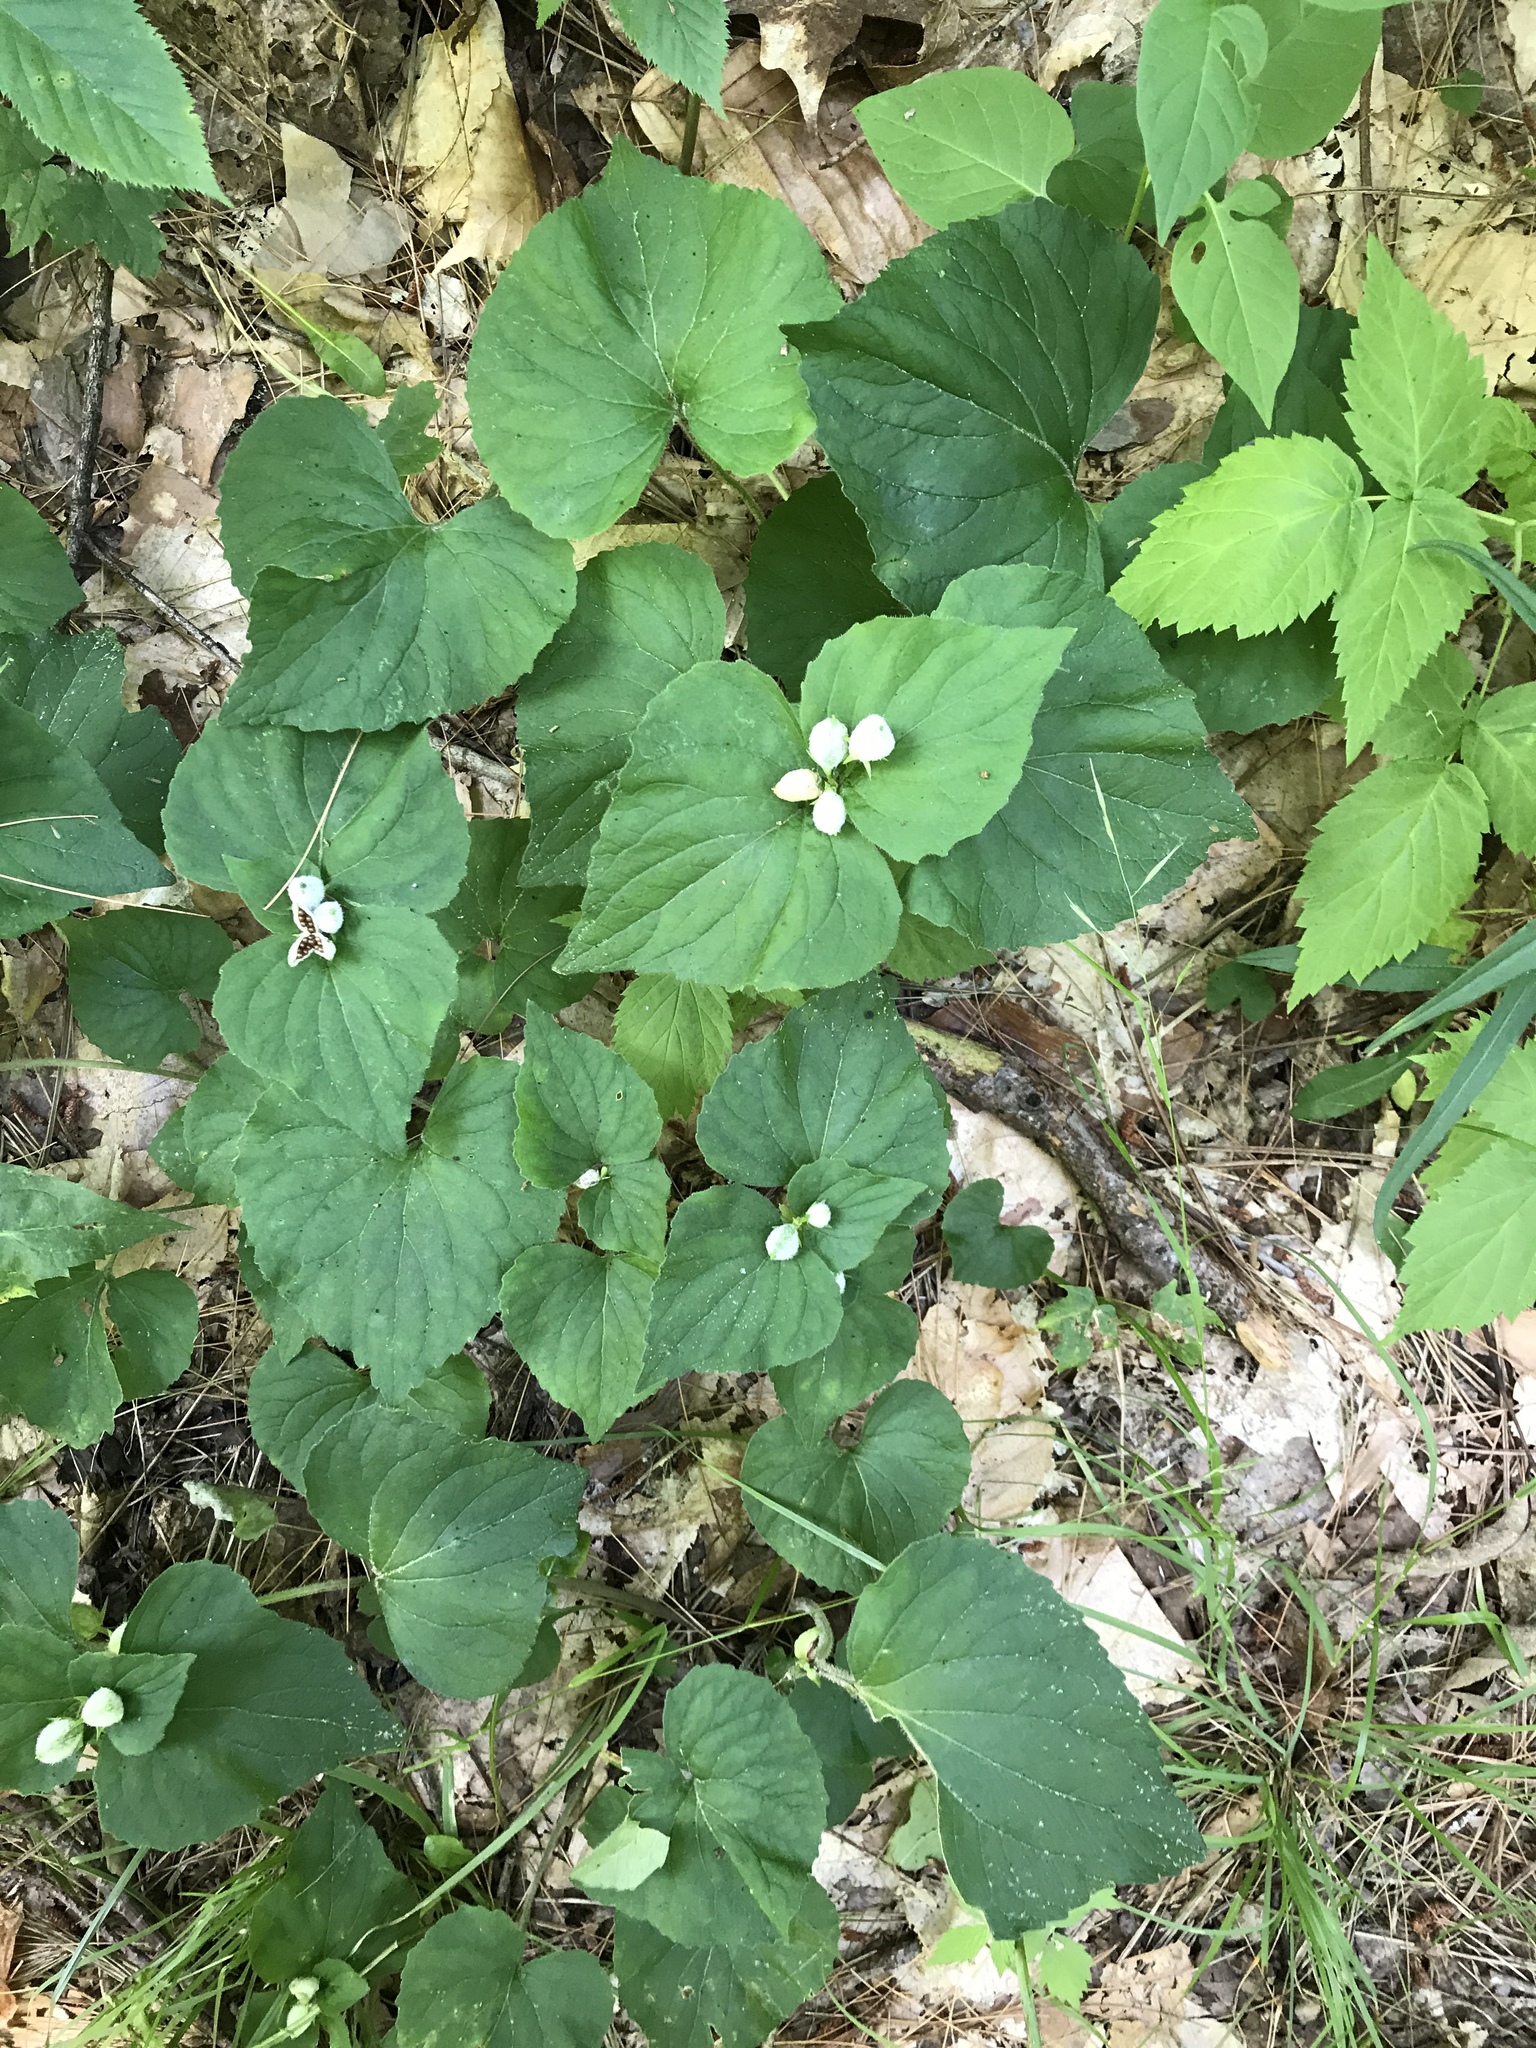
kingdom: Plantae
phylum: Tracheophyta
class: Magnoliopsida
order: Malpighiales
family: Violaceae
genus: Viola
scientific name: Viola eriocarpa
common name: Smooth yellow violet
